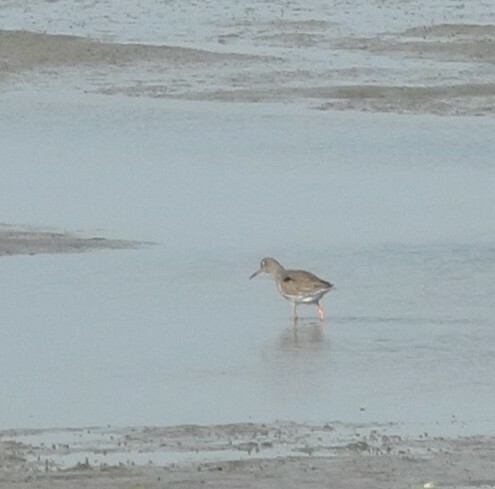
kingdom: Animalia
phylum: Chordata
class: Aves
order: Charadriiformes
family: Scolopacidae
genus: Tringa
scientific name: Tringa totanus
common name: Common redshank
